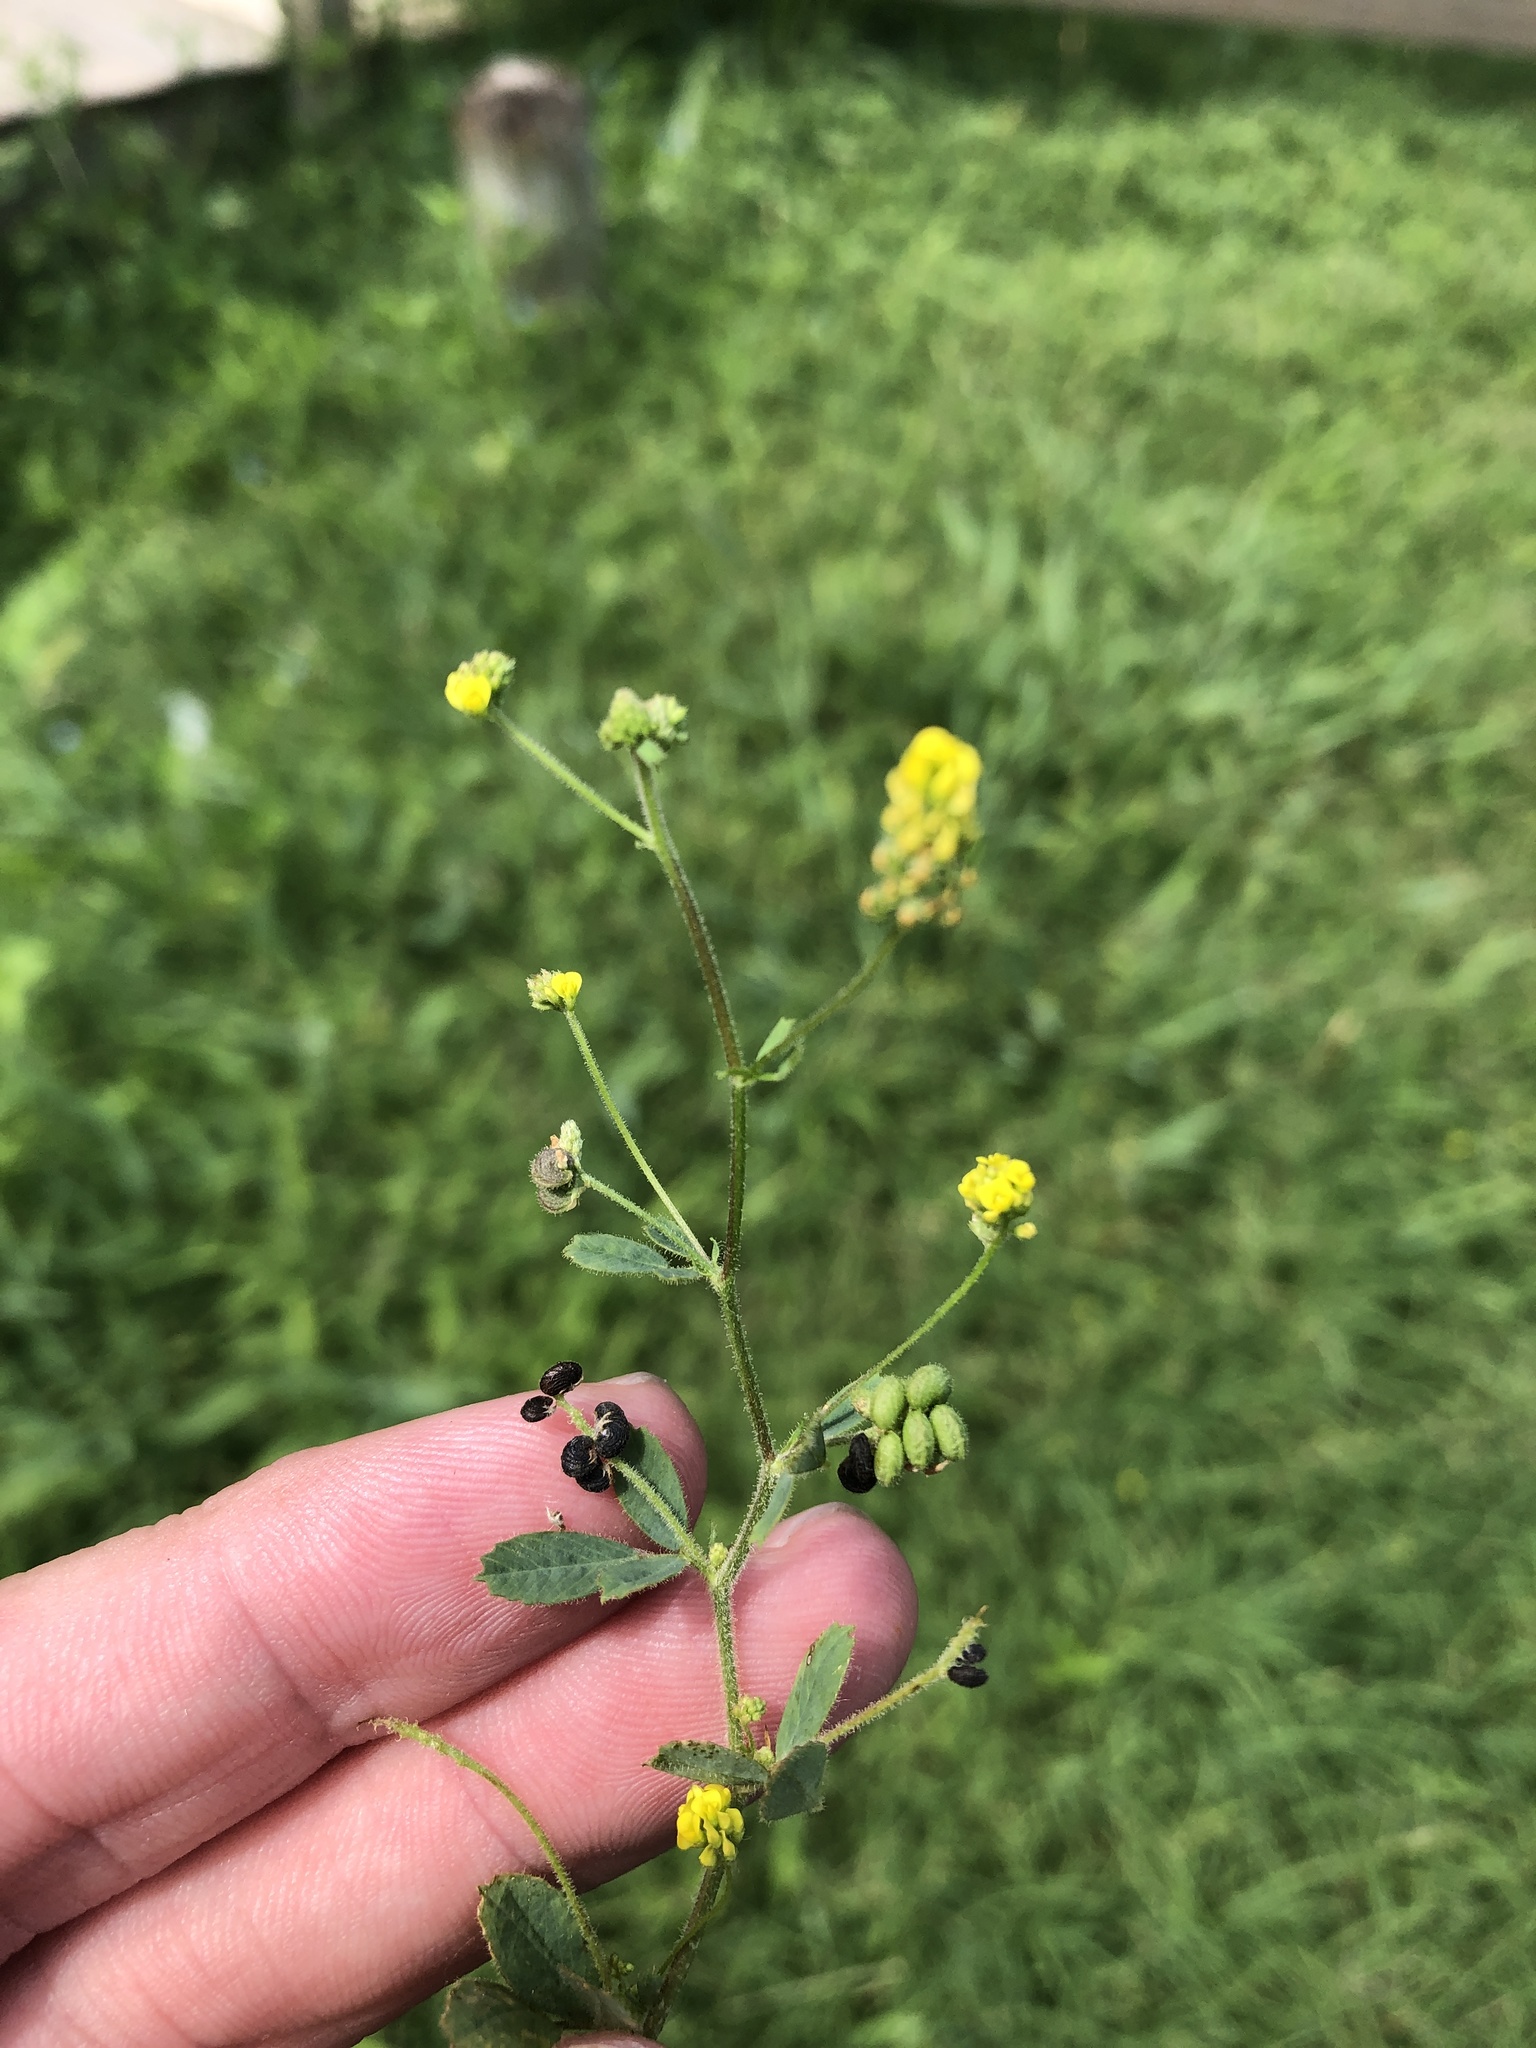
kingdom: Plantae
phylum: Tracheophyta
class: Magnoliopsida
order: Fabales
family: Fabaceae
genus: Medicago
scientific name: Medicago lupulina
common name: Black medick
